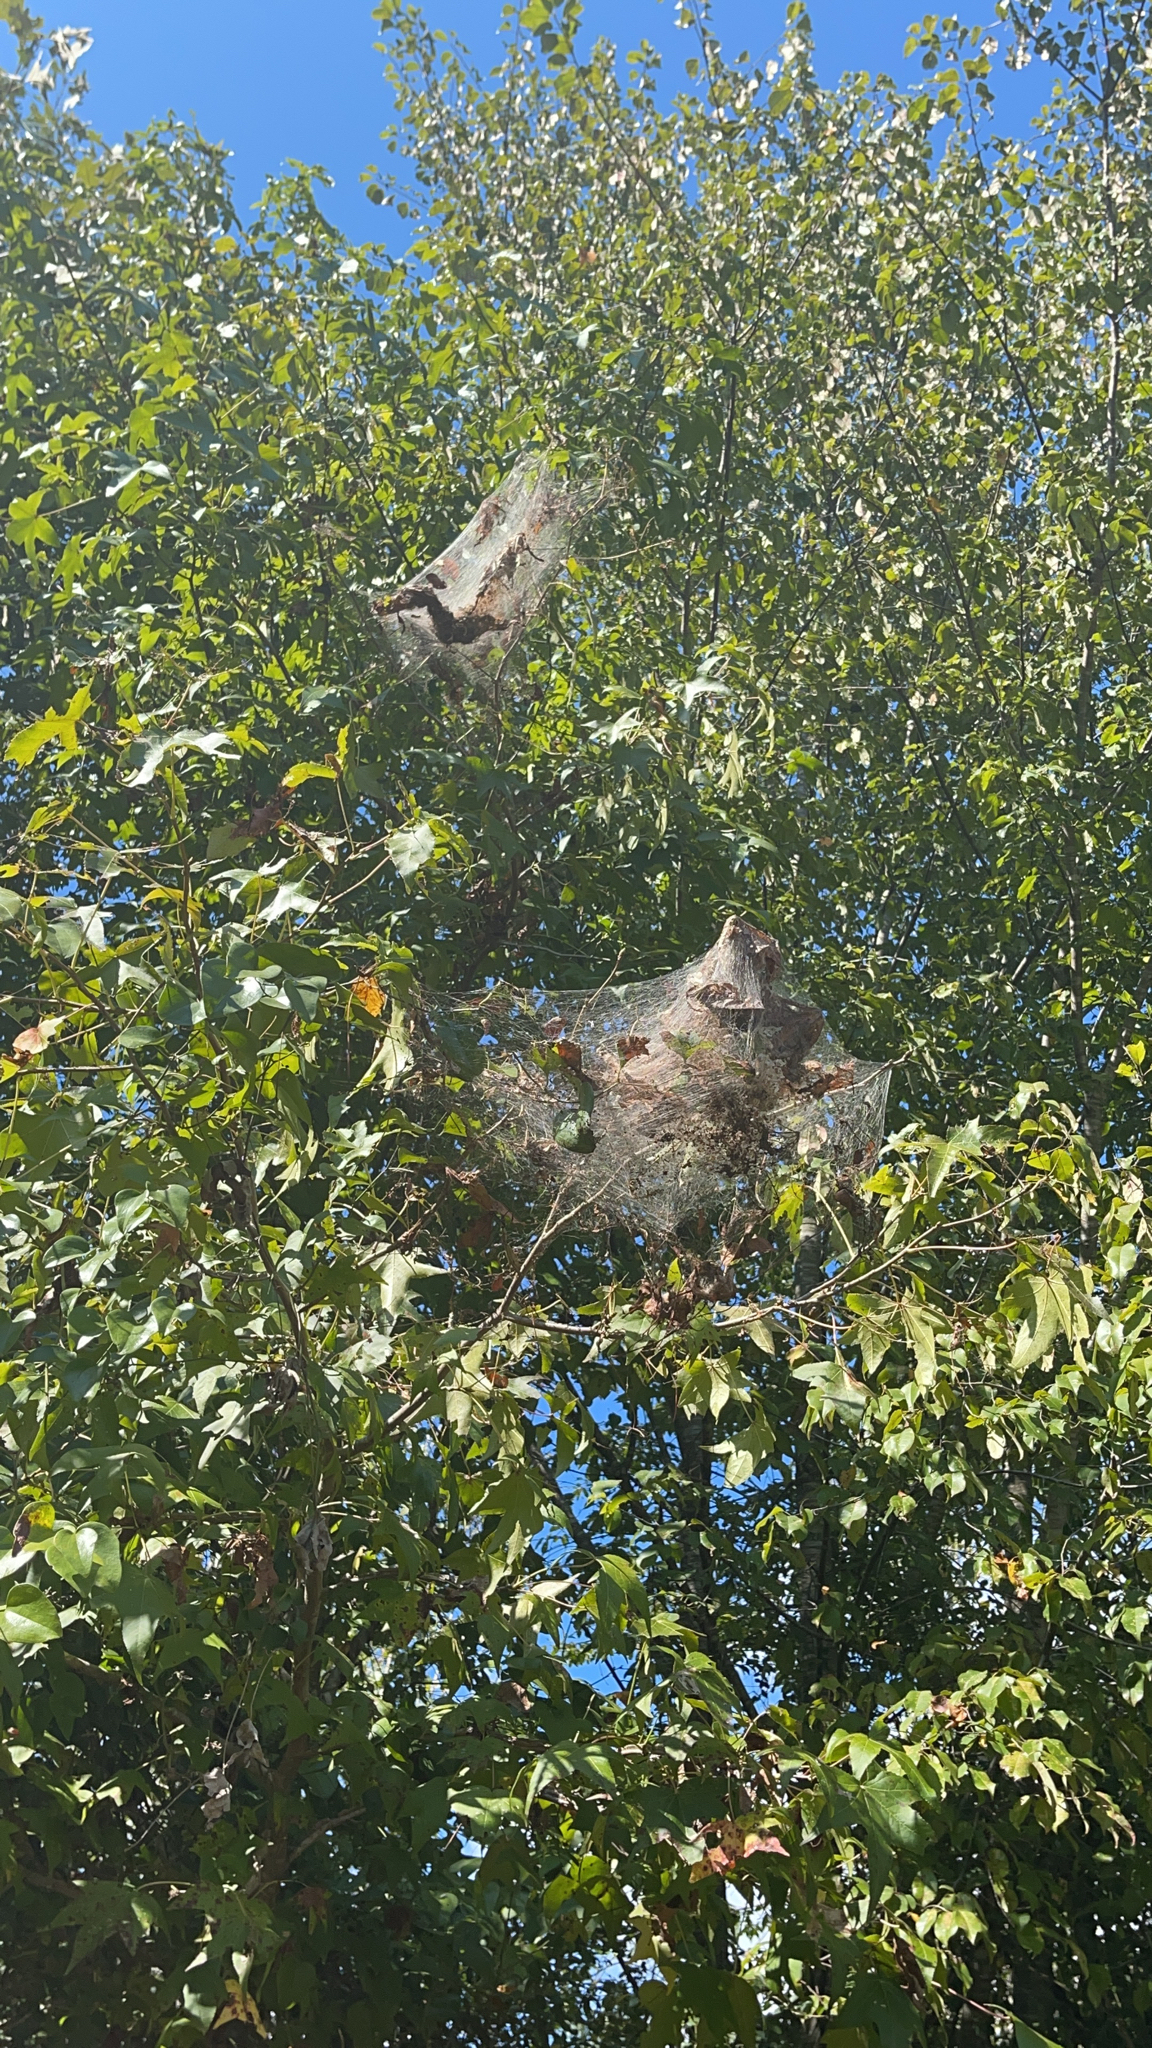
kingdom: Animalia
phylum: Arthropoda
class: Insecta
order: Lepidoptera
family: Erebidae
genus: Hyphantria
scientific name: Hyphantria cunea
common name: American white moth
